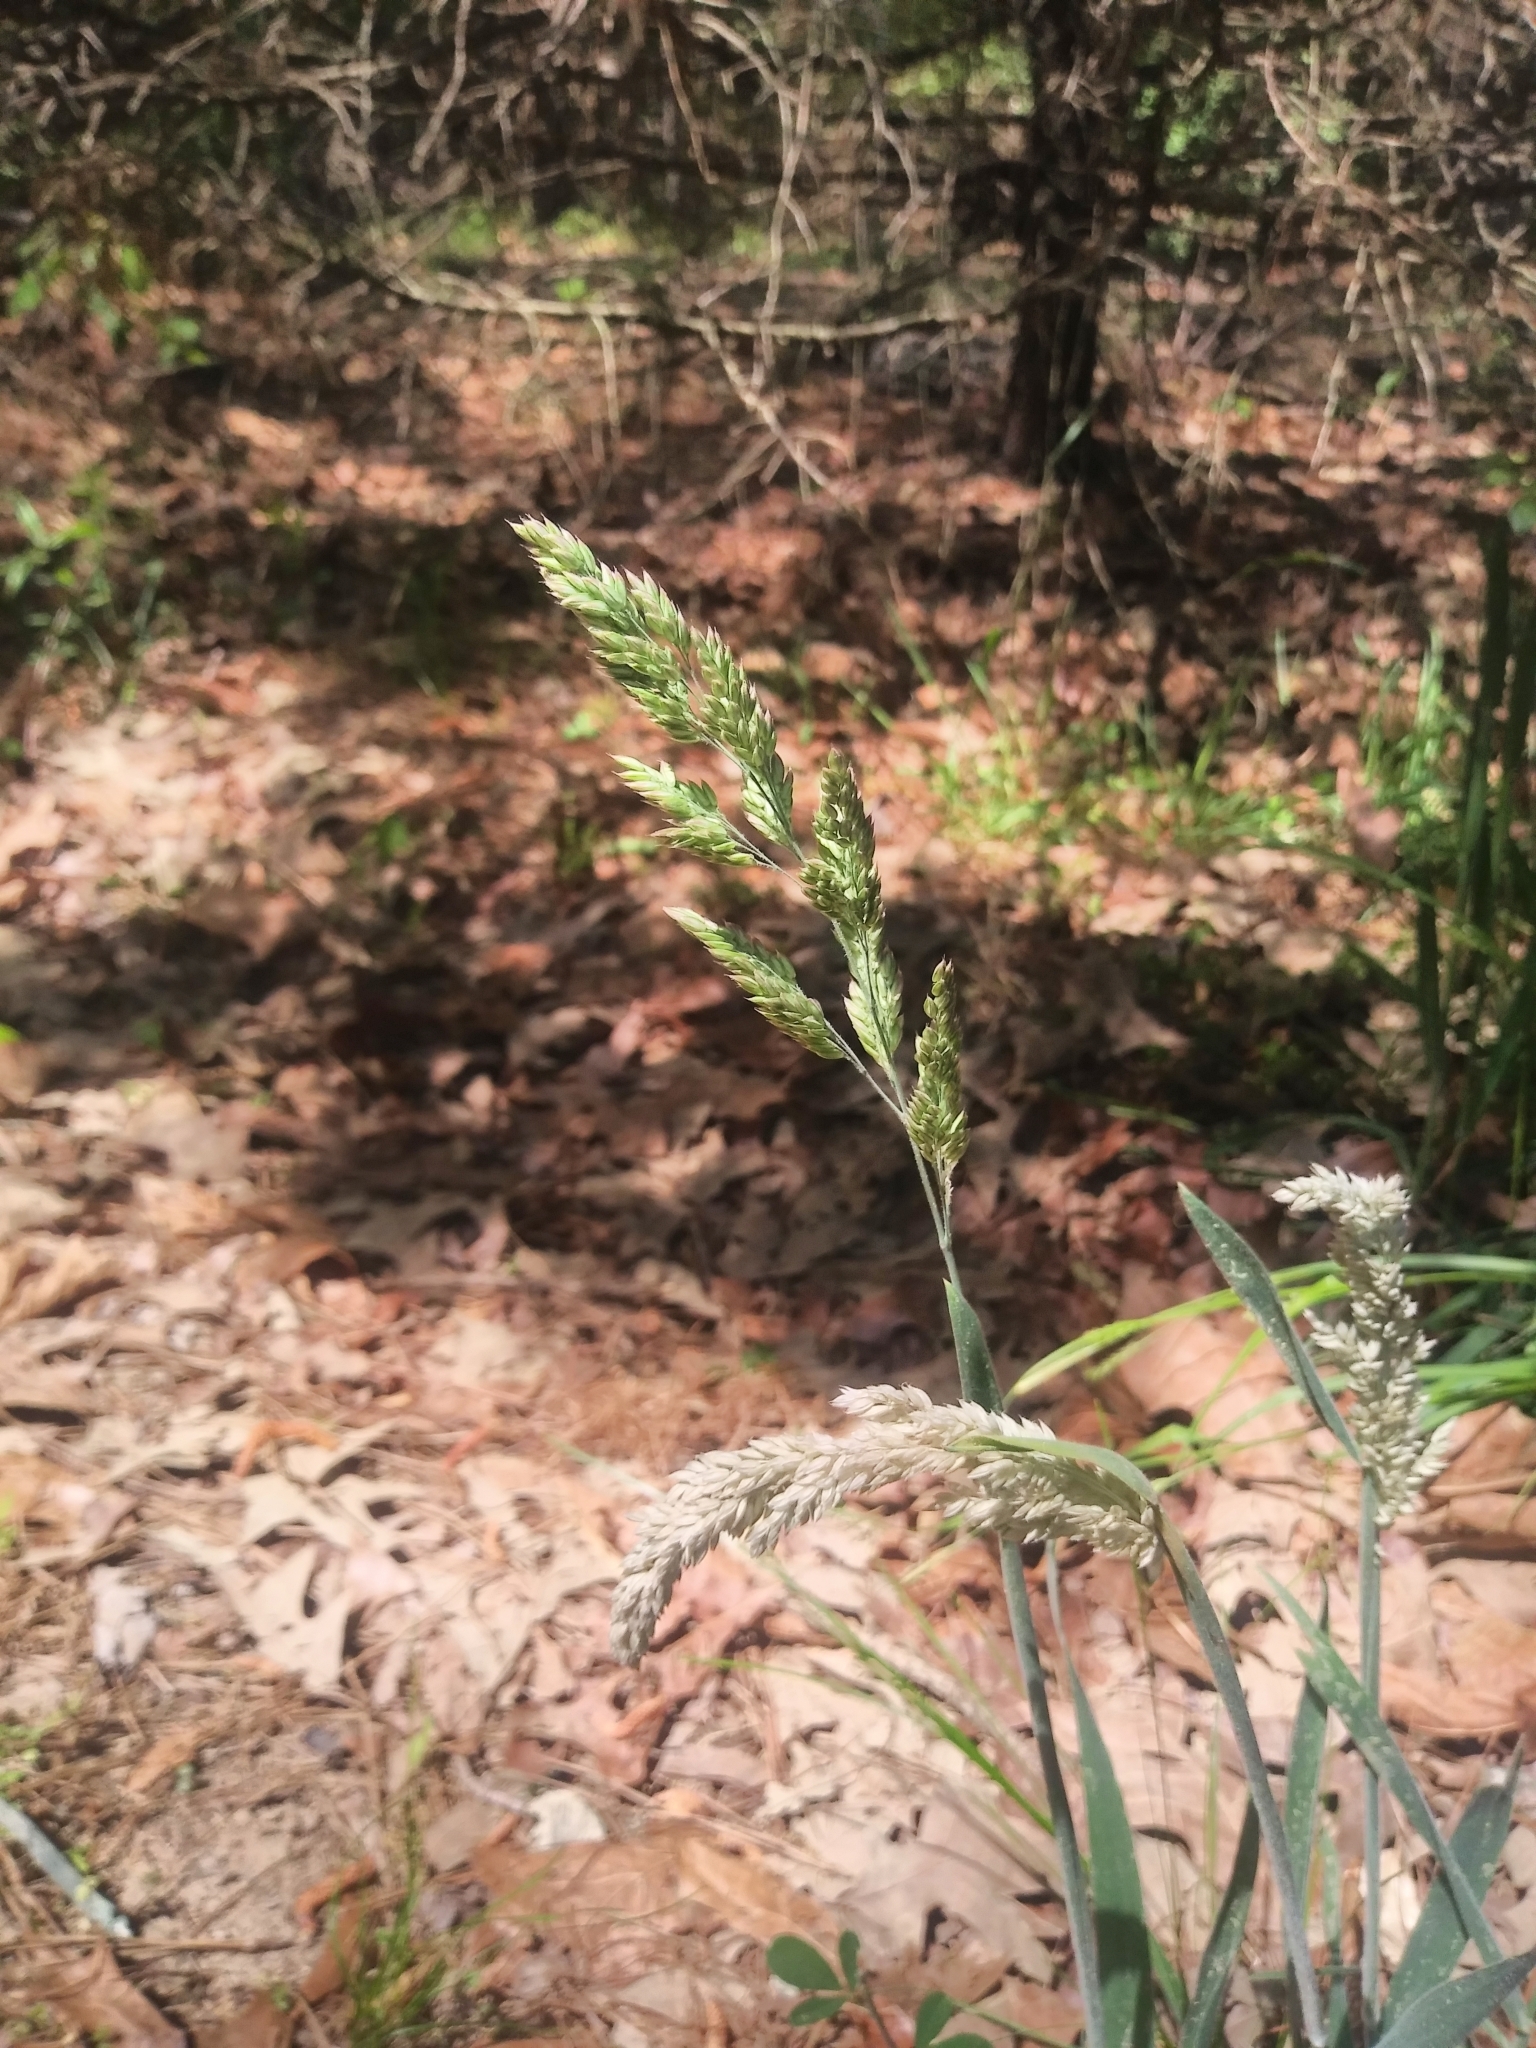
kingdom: Plantae
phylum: Tracheophyta
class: Liliopsida
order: Poales
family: Poaceae
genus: Holcus
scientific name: Holcus lanatus
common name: Yorkshire-fog
